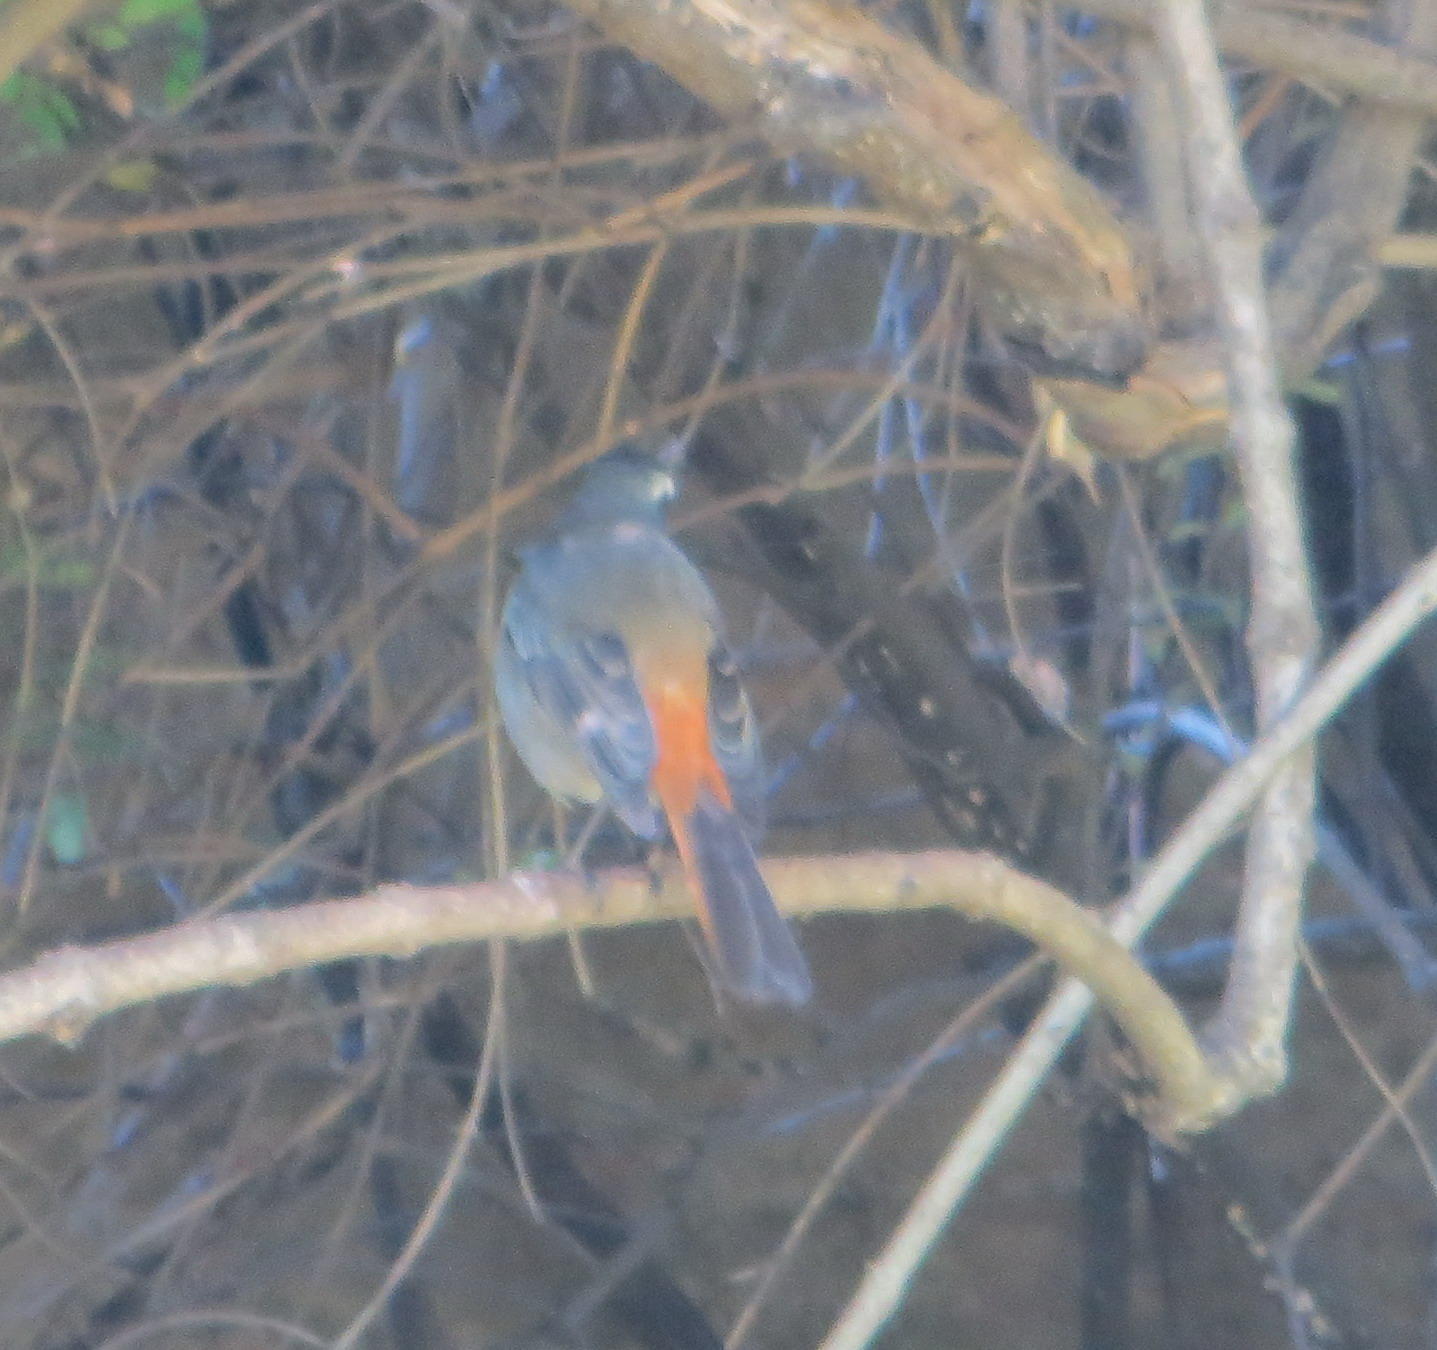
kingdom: Animalia
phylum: Chordata
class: Aves
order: Passeriformes
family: Muscicapidae
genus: Cossypha
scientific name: Cossypha caffra
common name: Cape robin-chat
